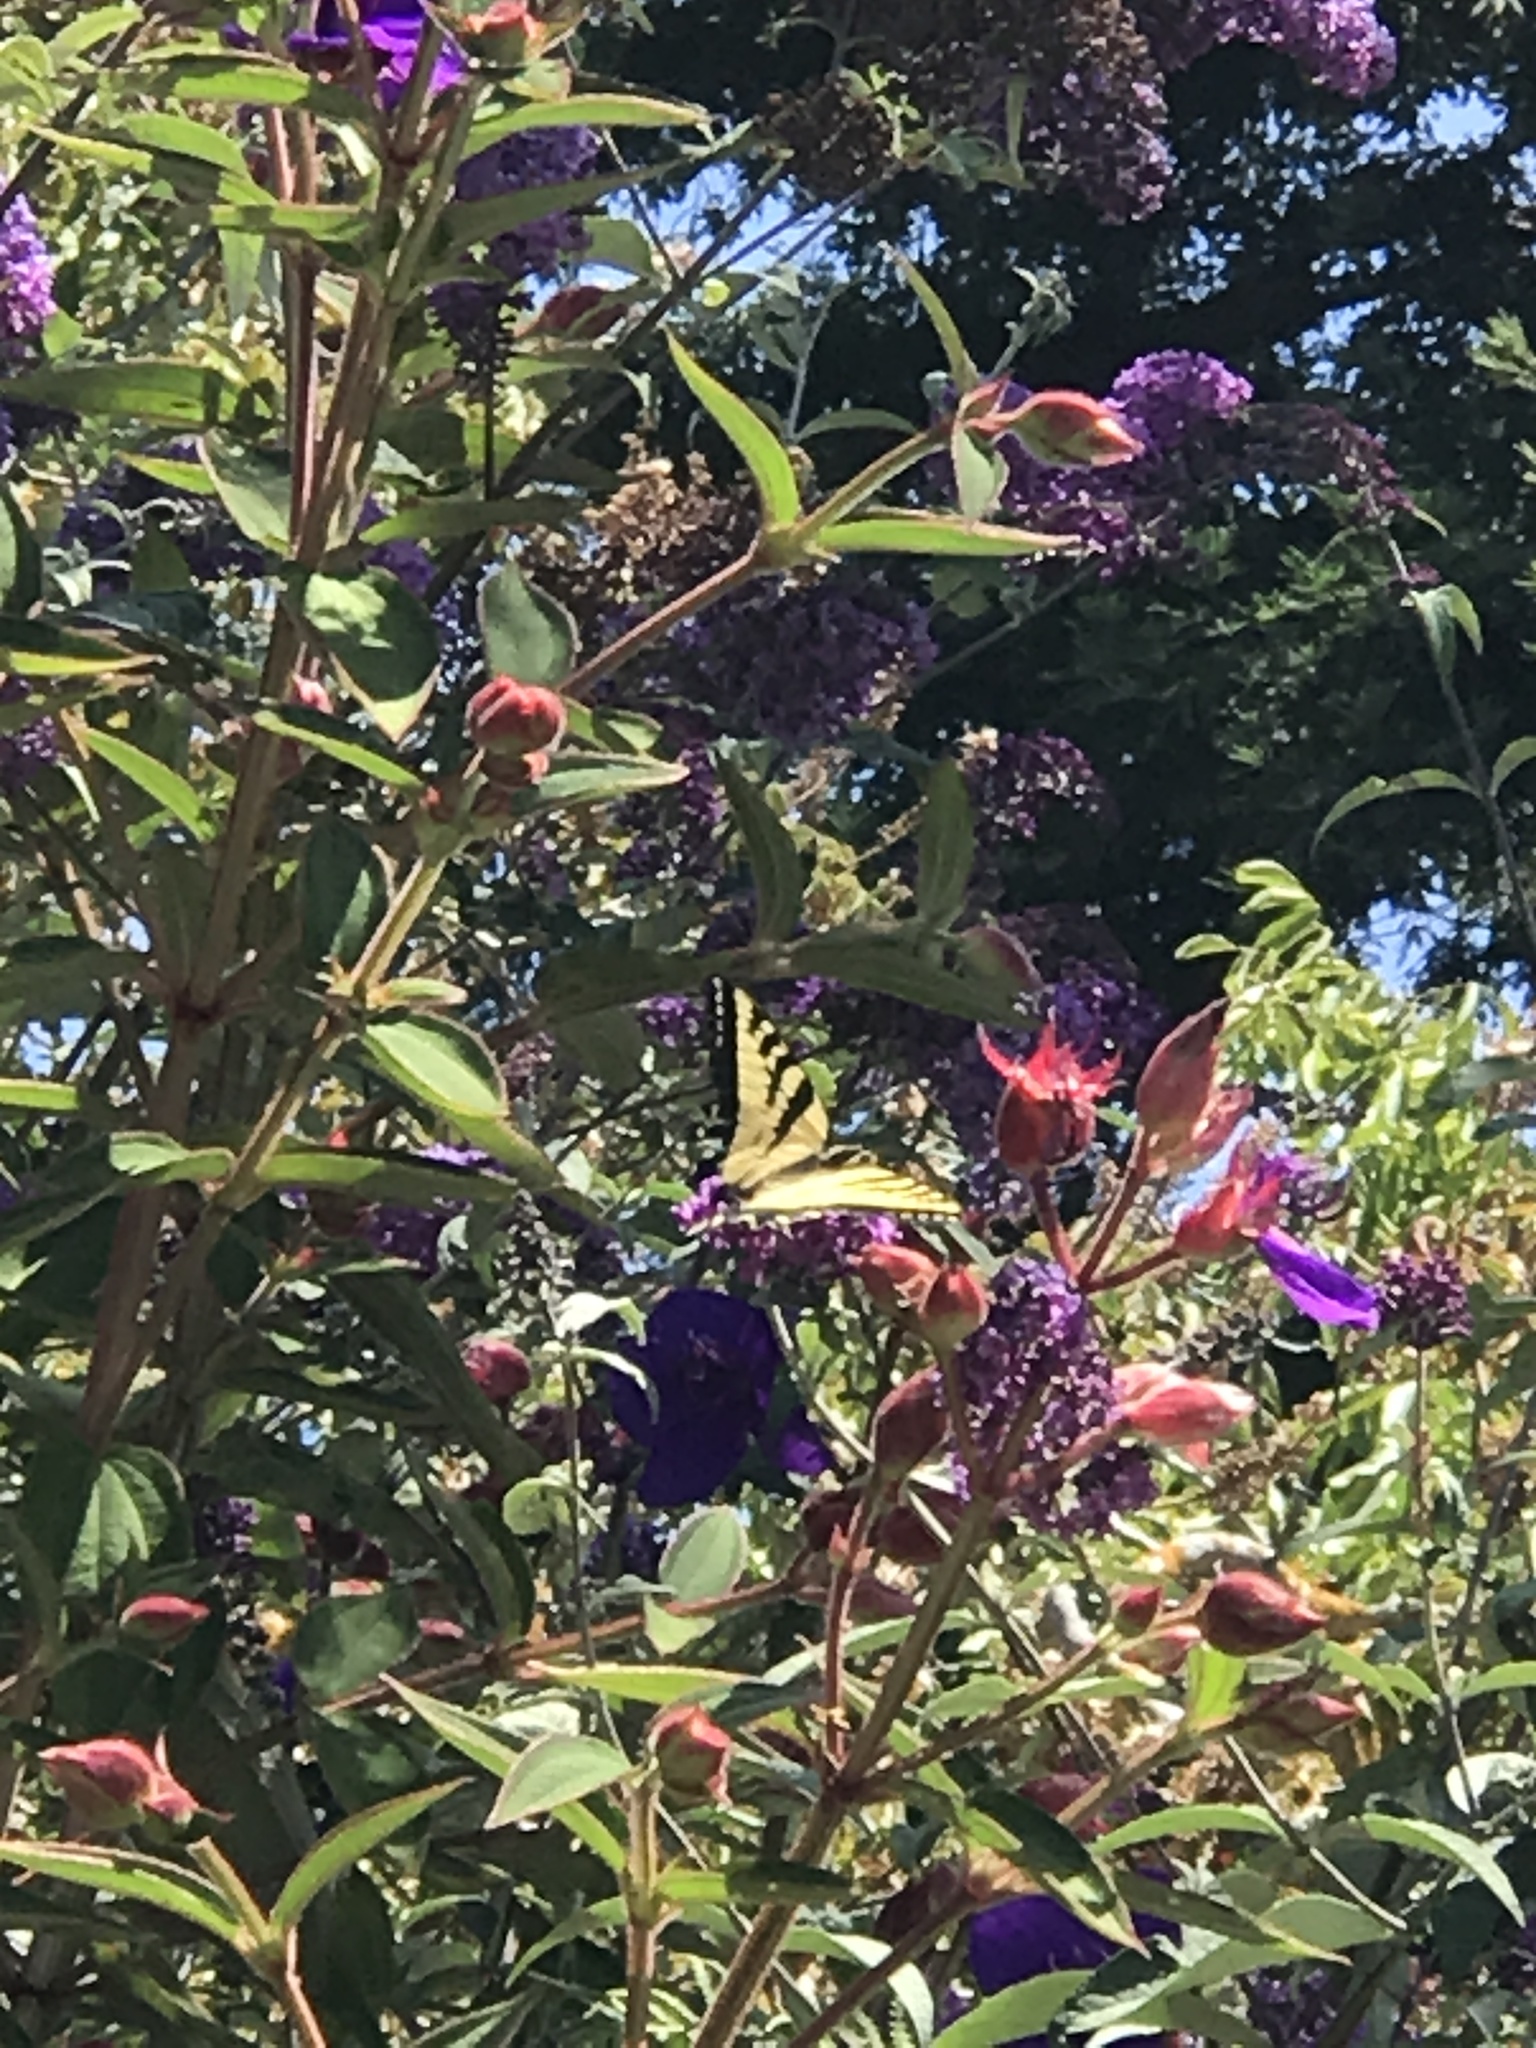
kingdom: Animalia
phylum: Arthropoda
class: Insecta
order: Lepidoptera
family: Papilionidae
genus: Papilio
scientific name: Papilio rutulus
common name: Western tiger swallowtail
